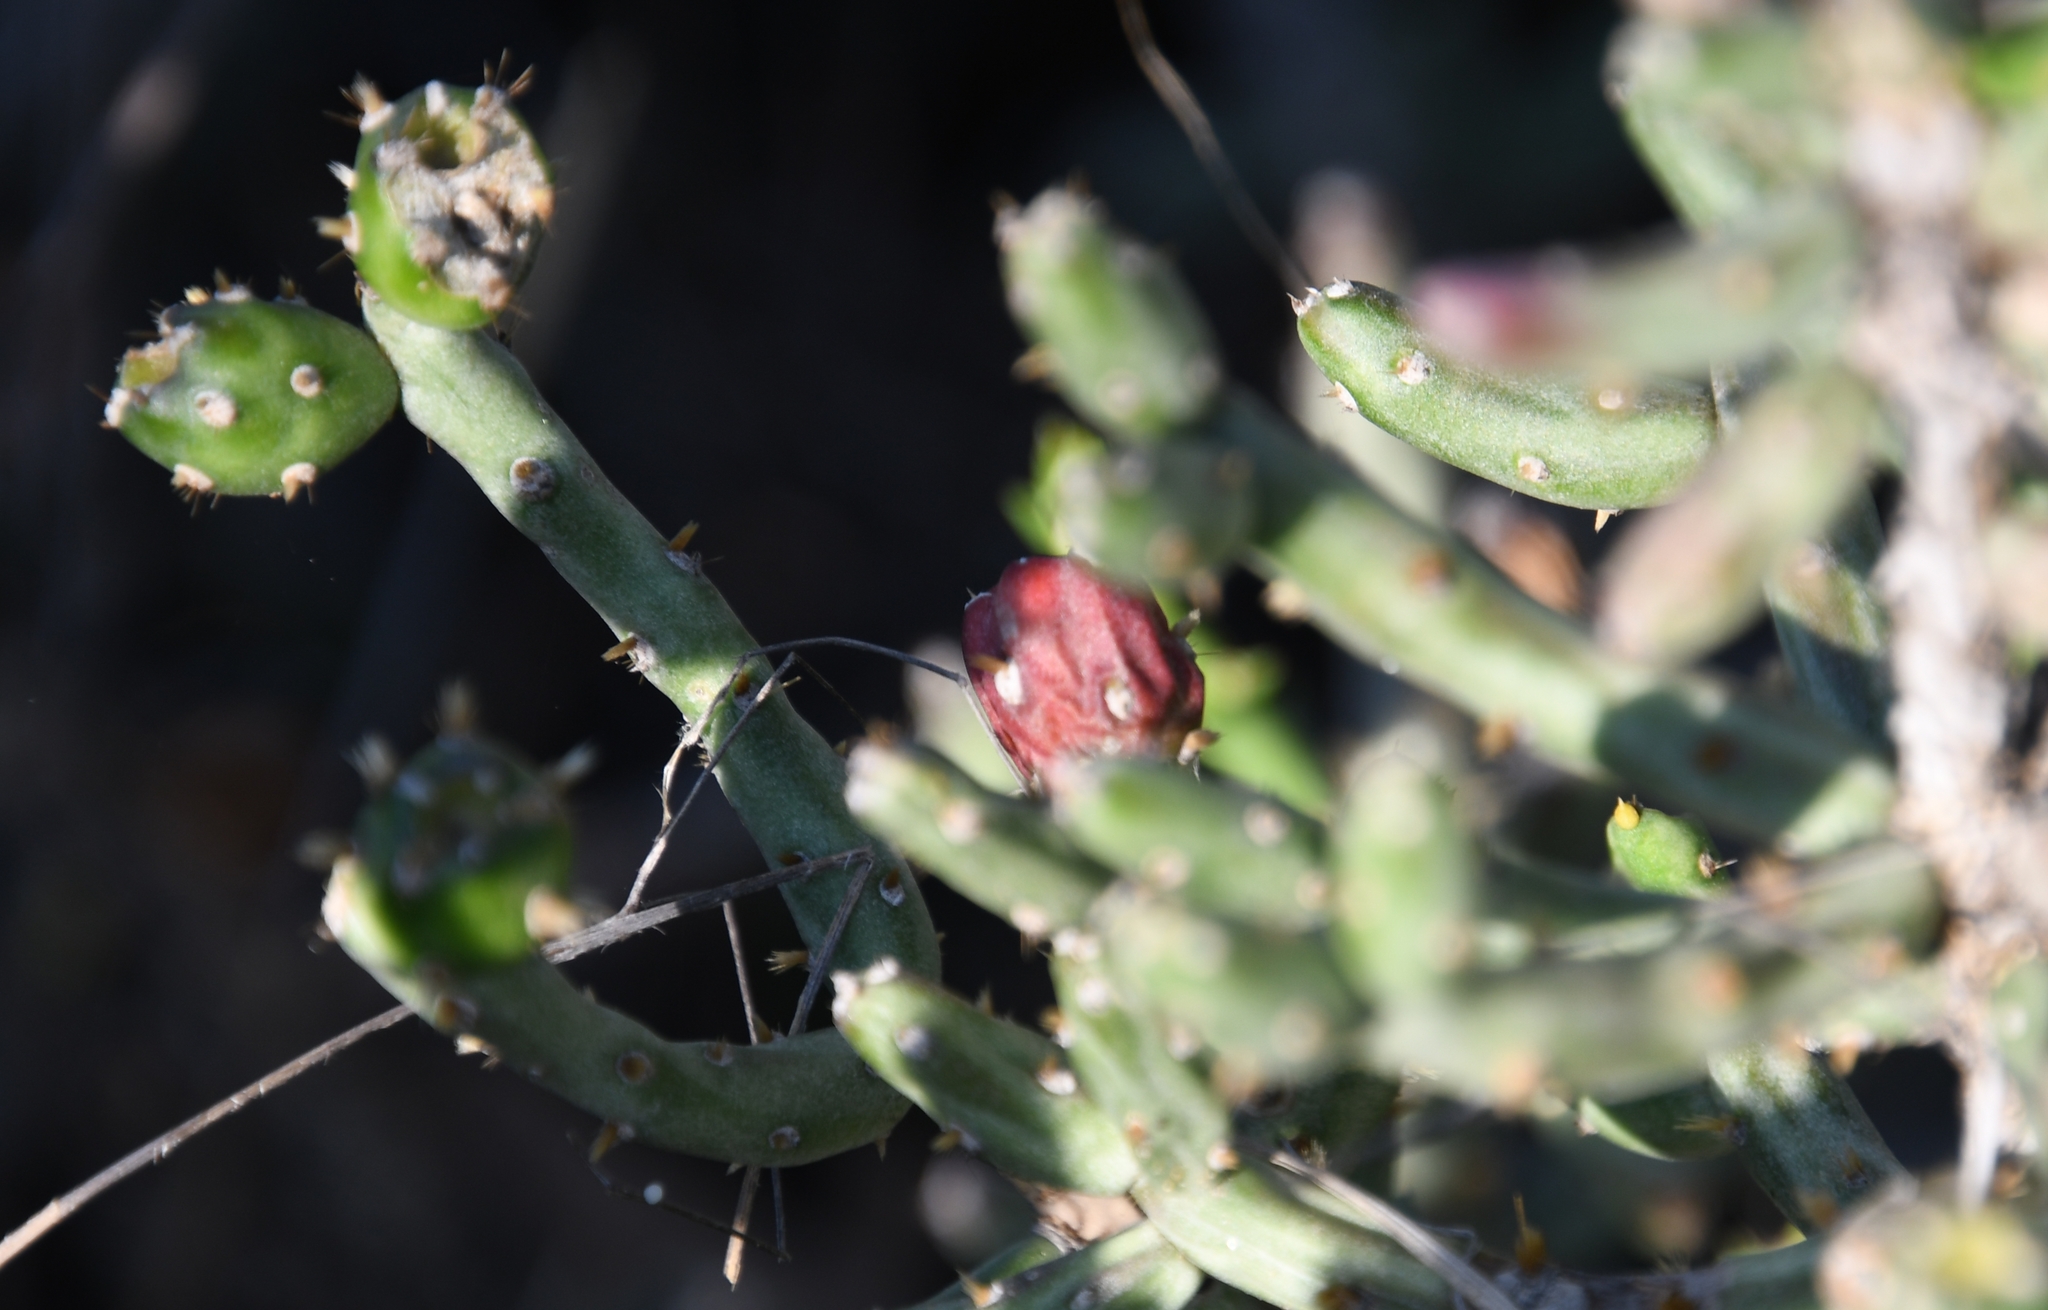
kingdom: Plantae
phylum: Tracheophyta
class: Magnoliopsida
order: Caryophyllales
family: Cactaceae
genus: Cylindropuntia
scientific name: Cylindropuntia leptocaulis
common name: Christmas cactus
